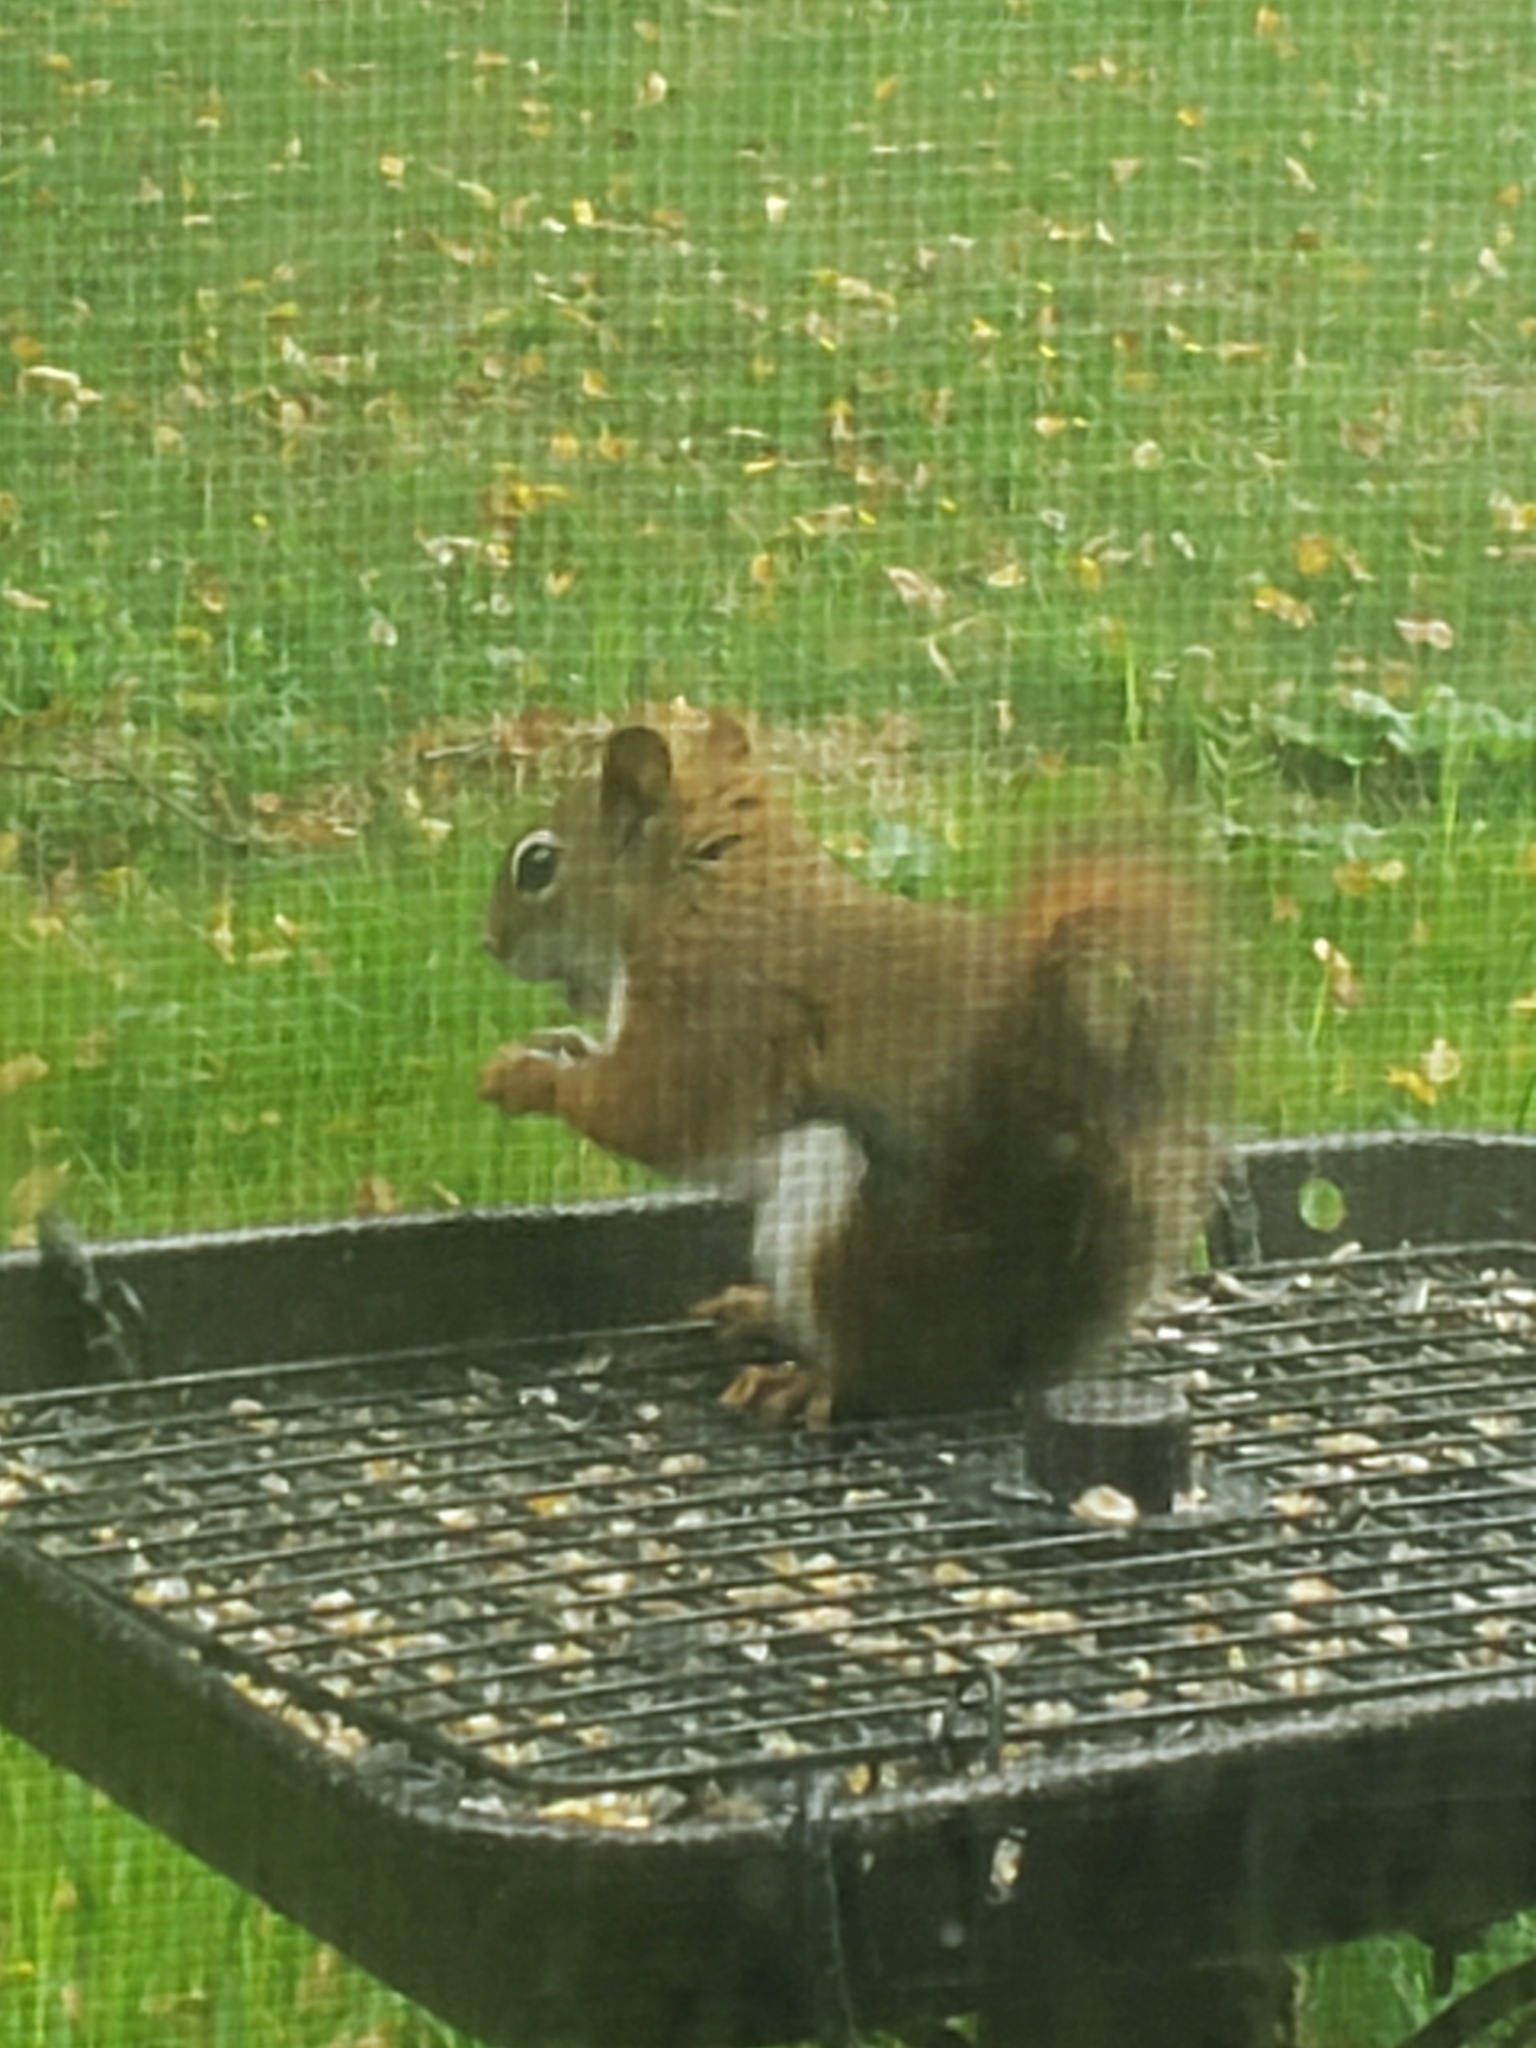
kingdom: Animalia
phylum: Chordata
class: Mammalia
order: Rodentia
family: Sciuridae
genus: Tamiasciurus
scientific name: Tamiasciurus hudsonicus
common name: Red squirrel
